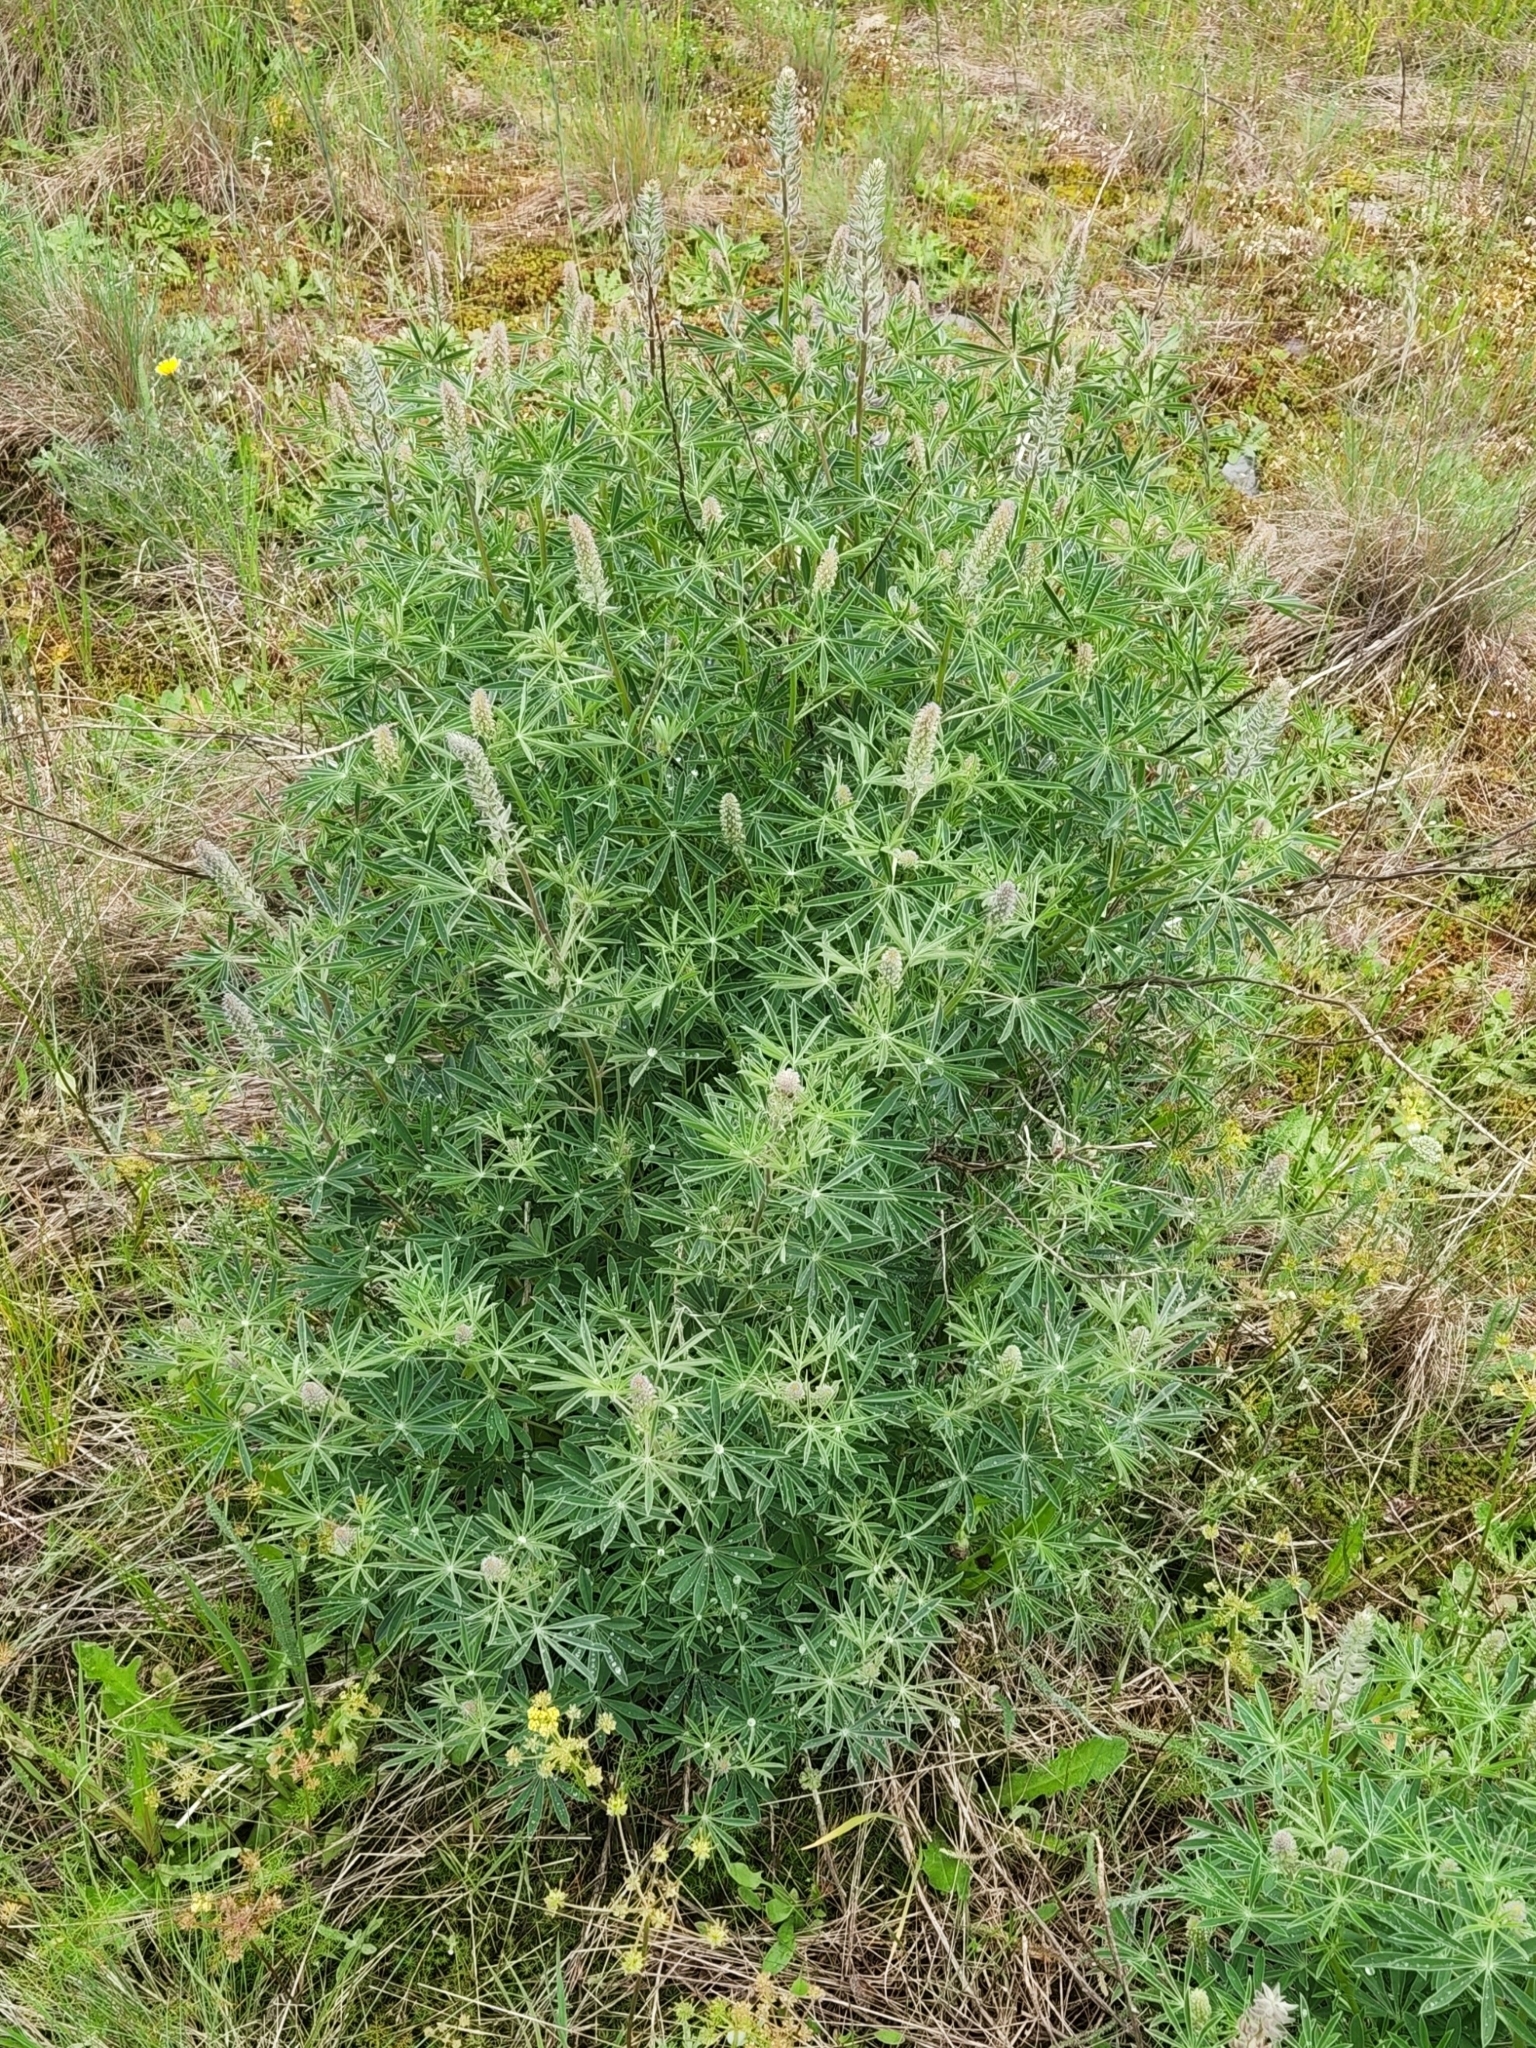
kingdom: Plantae
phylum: Tracheophyta
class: Magnoliopsida
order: Fabales
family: Fabaceae
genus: Lupinus
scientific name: Lupinus albicaulis
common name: Pine lupine
